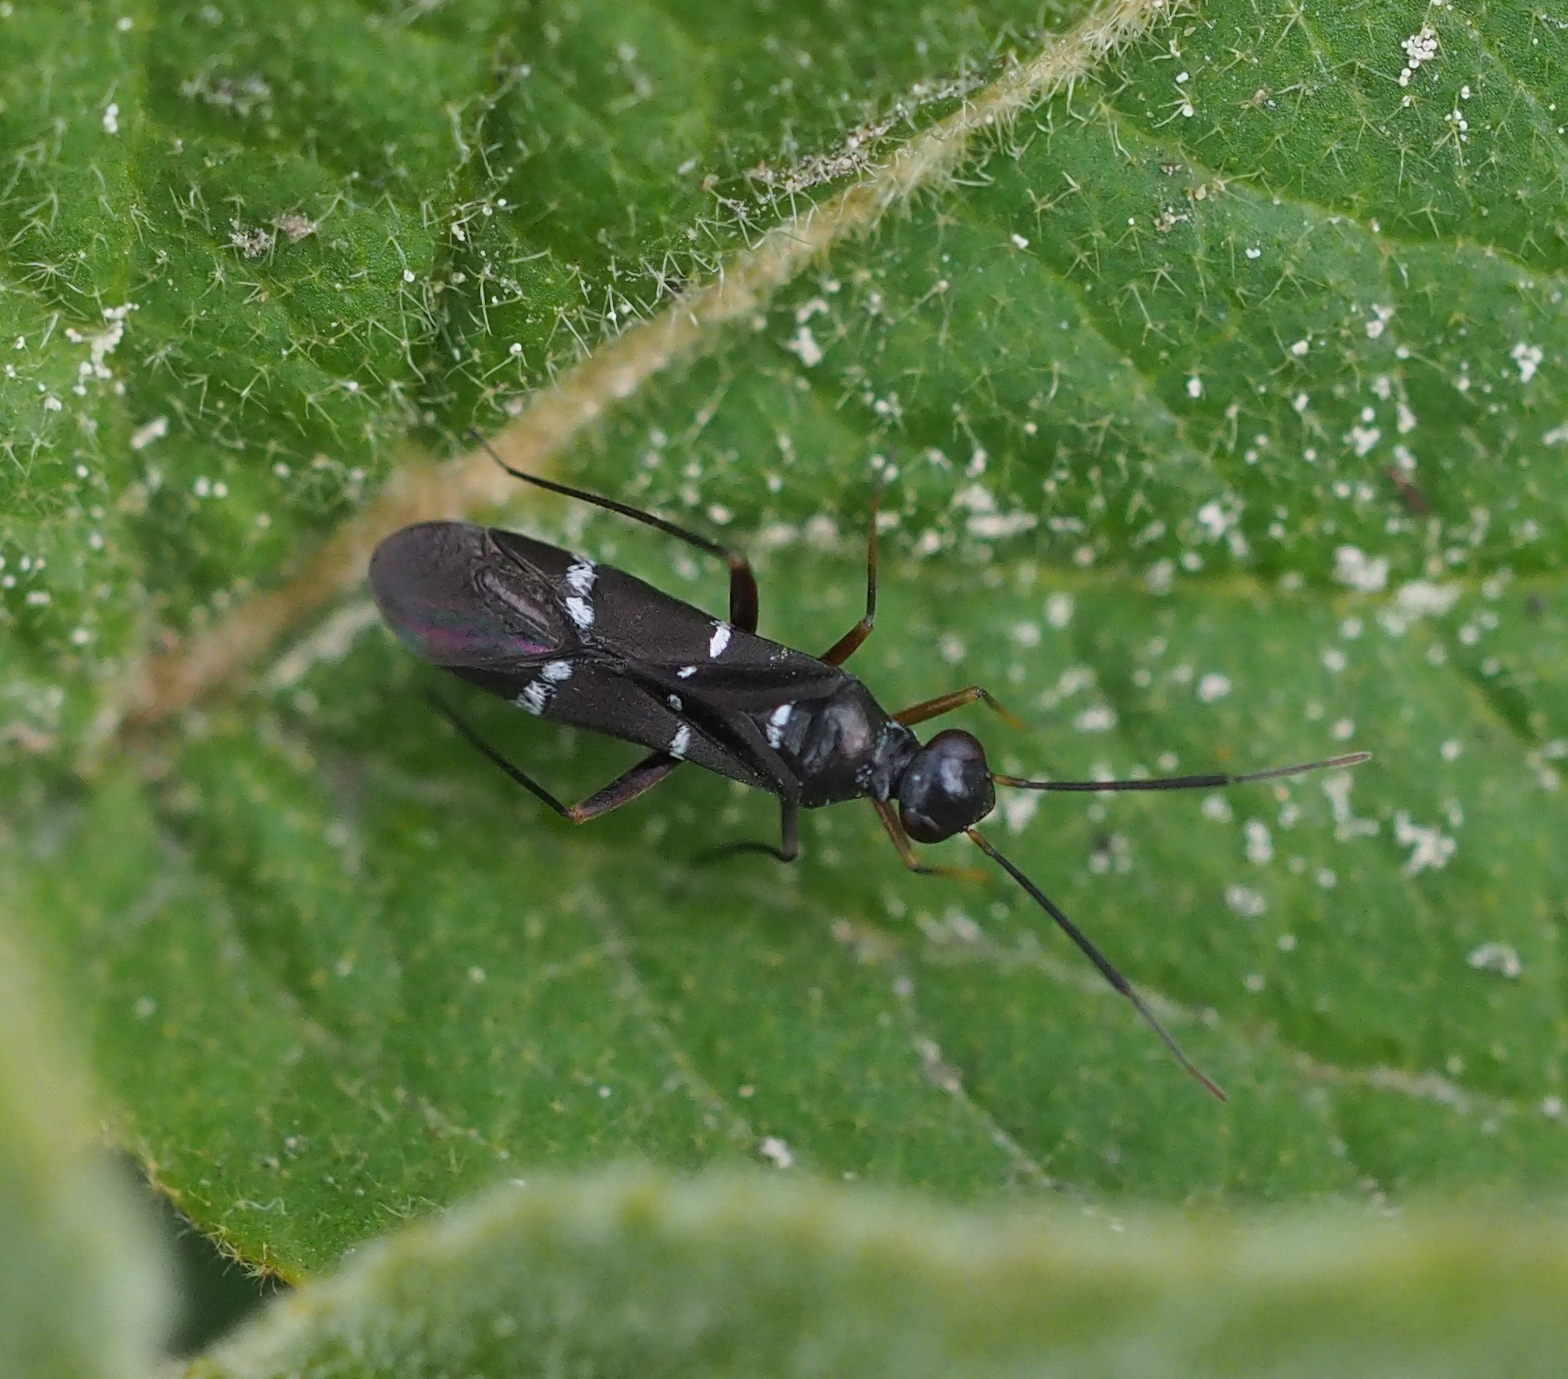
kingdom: Animalia
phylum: Arthropoda
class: Insecta
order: Hemiptera
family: Miridae
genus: Globiceps
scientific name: Globiceps sphaegiformis
